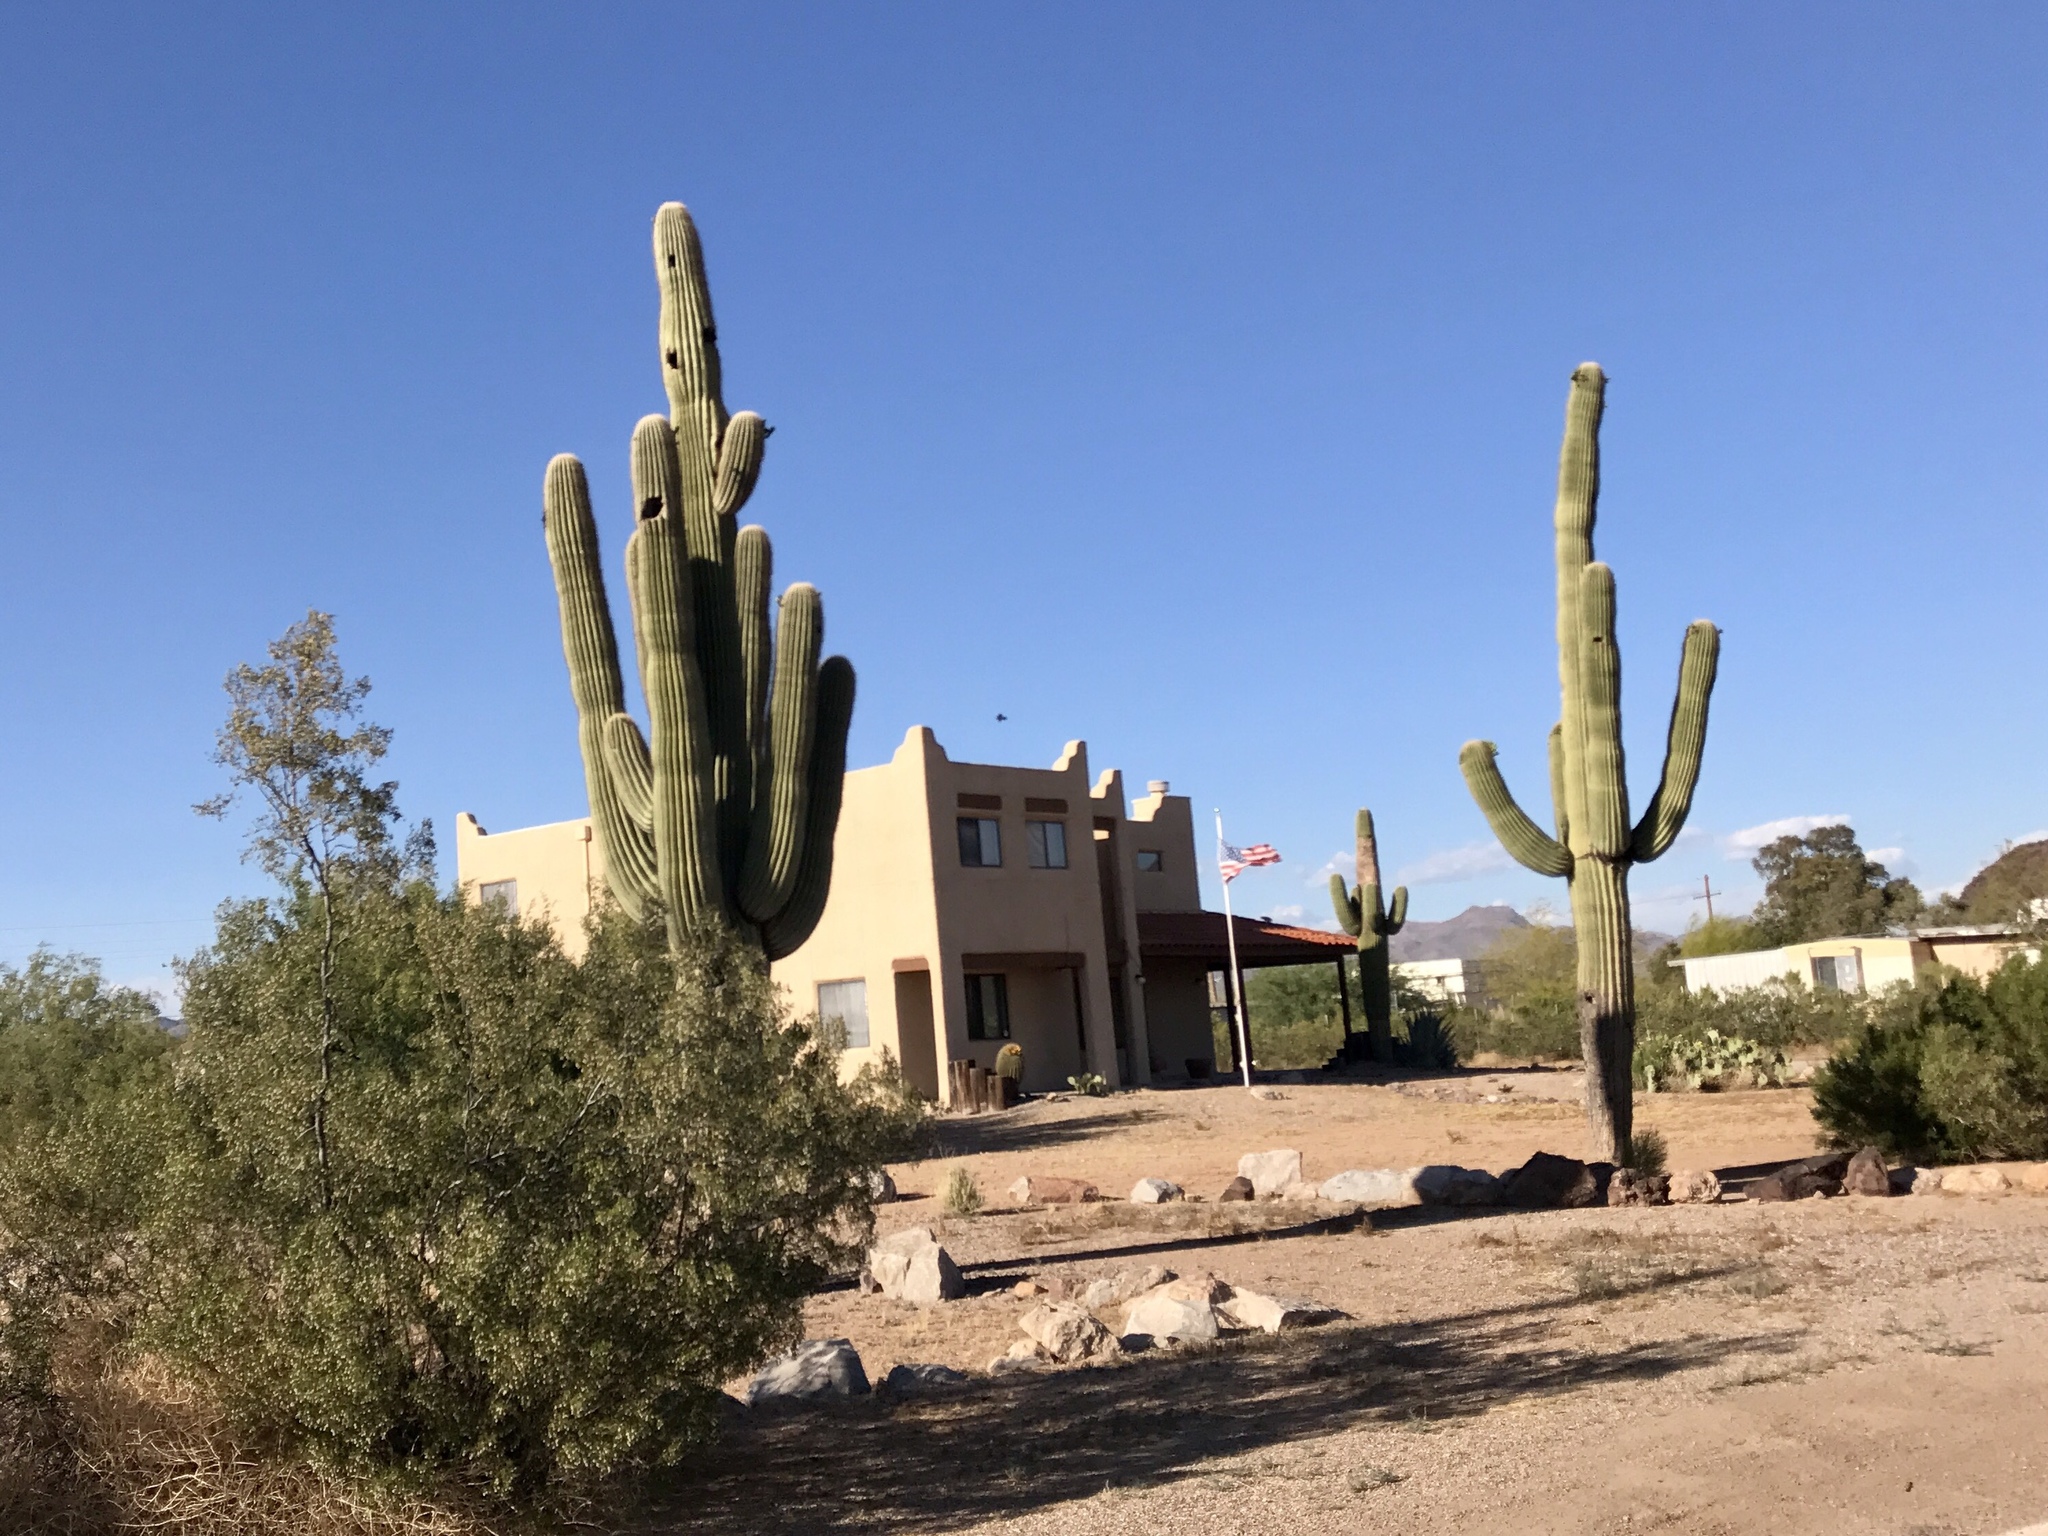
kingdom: Plantae
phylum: Tracheophyta
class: Magnoliopsida
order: Caryophyllales
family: Cactaceae
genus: Carnegiea
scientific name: Carnegiea gigantea
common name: Saguaro
